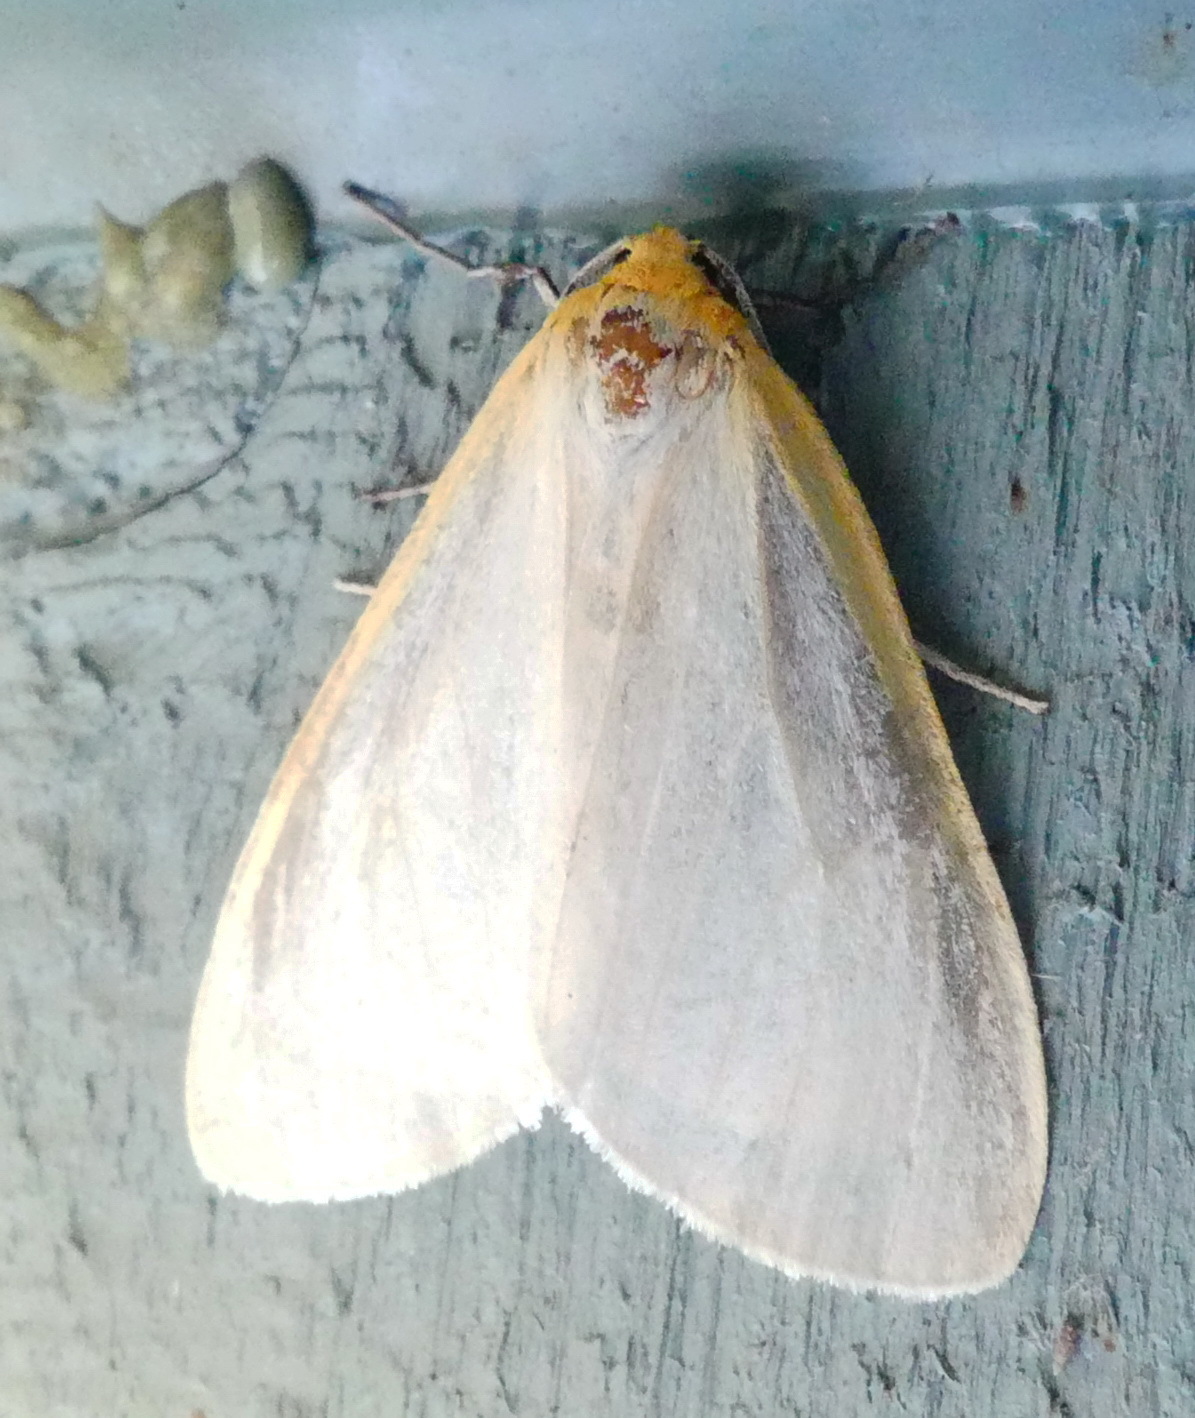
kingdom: Animalia
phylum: Arthropoda
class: Insecta
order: Lepidoptera
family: Erebidae
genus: Cycnia
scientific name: Cycnia tenera
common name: Delicate cycnia moth
